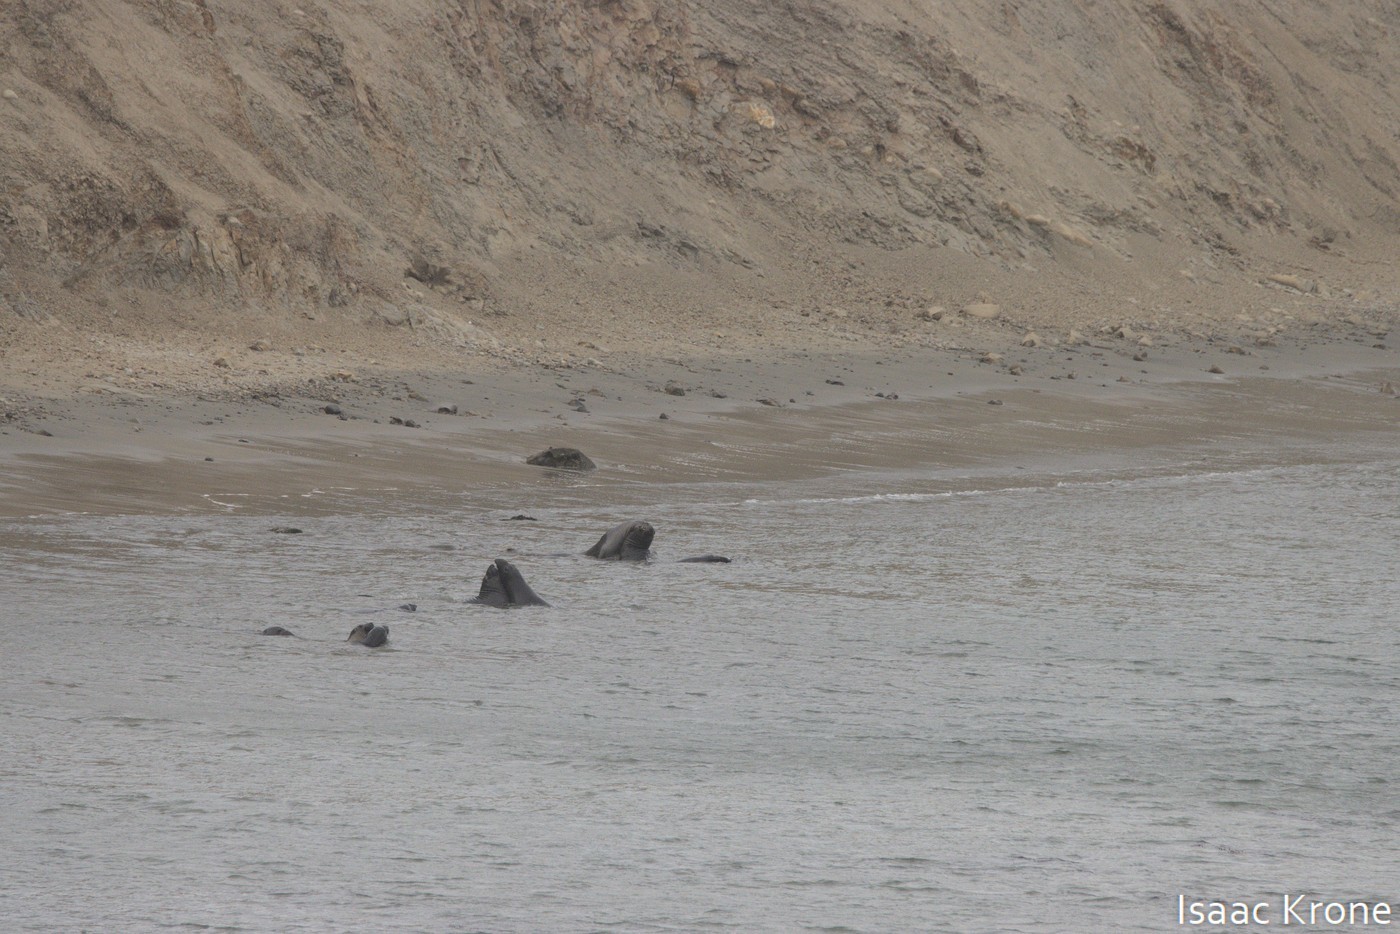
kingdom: Animalia
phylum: Chordata
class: Mammalia
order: Carnivora
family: Phocidae
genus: Mirounga
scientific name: Mirounga angustirostris
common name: Northern elephant seal
